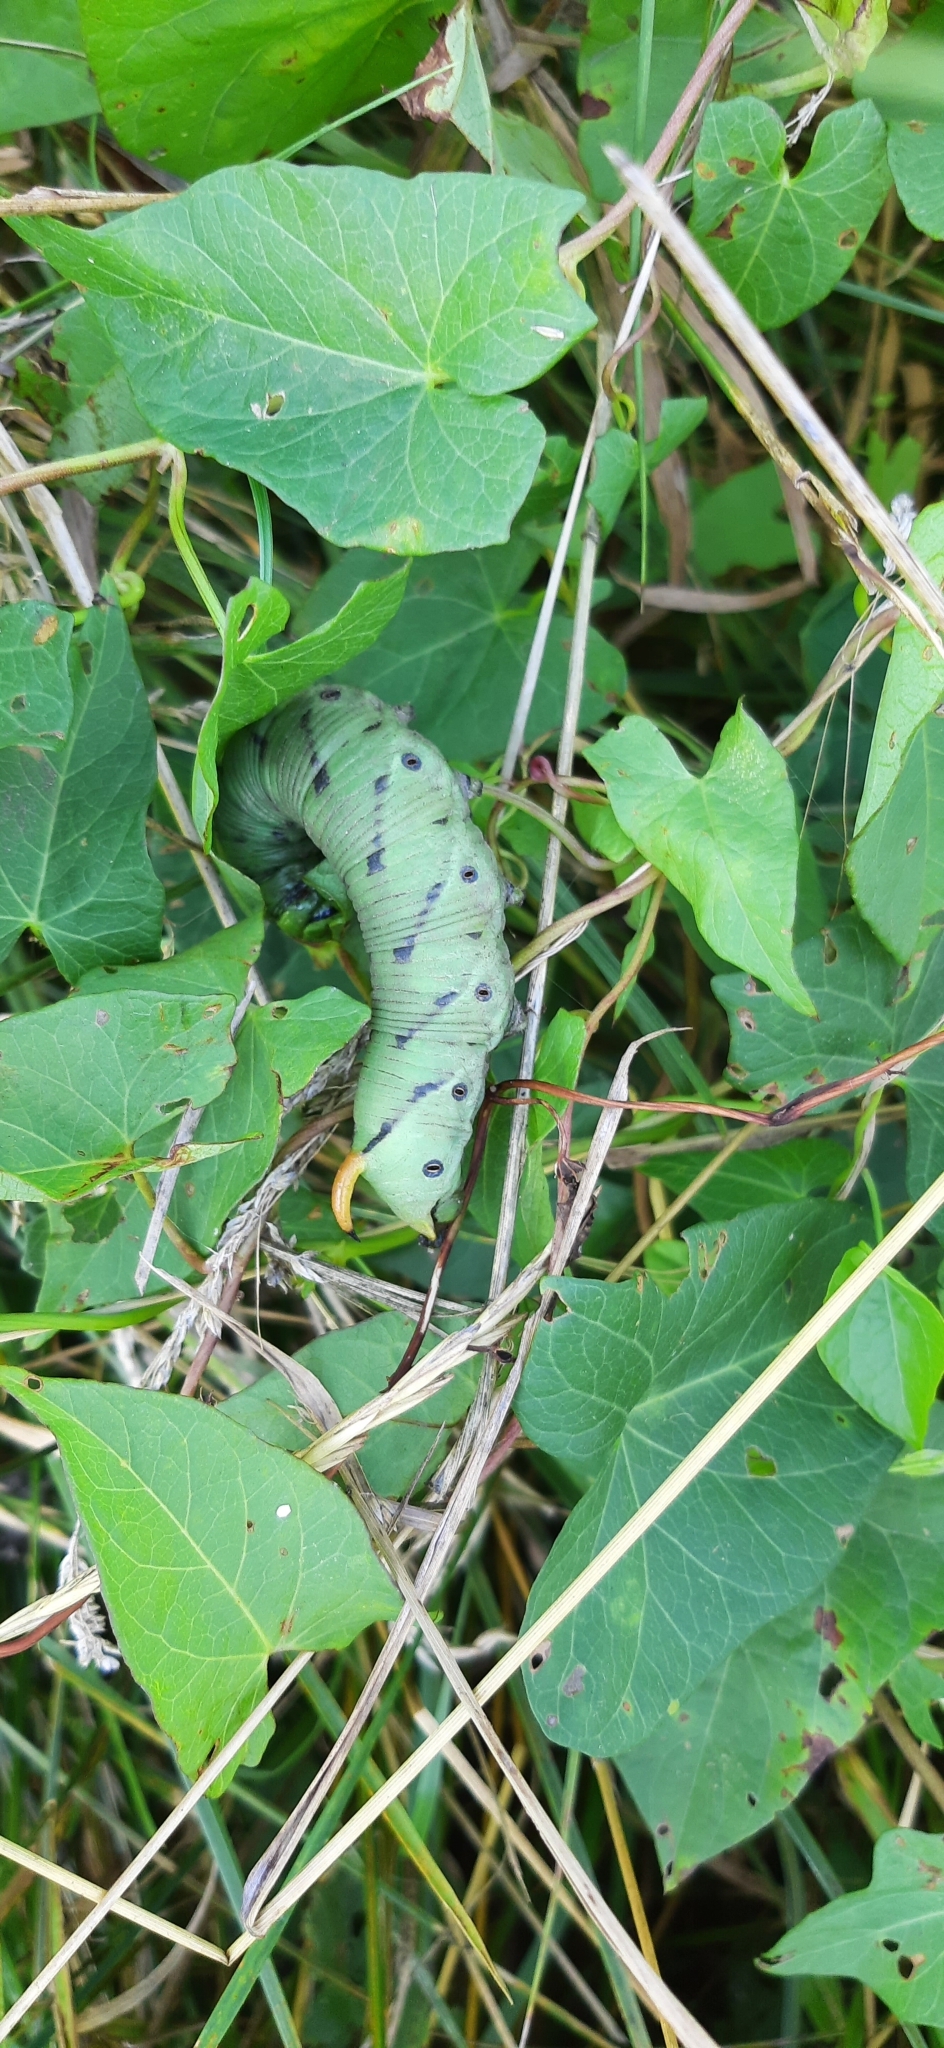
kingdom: Animalia
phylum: Arthropoda
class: Insecta
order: Lepidoptera
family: Sphingidae
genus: Agrius
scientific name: Agrius convolvuli
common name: Convolvulus hawkmoth
